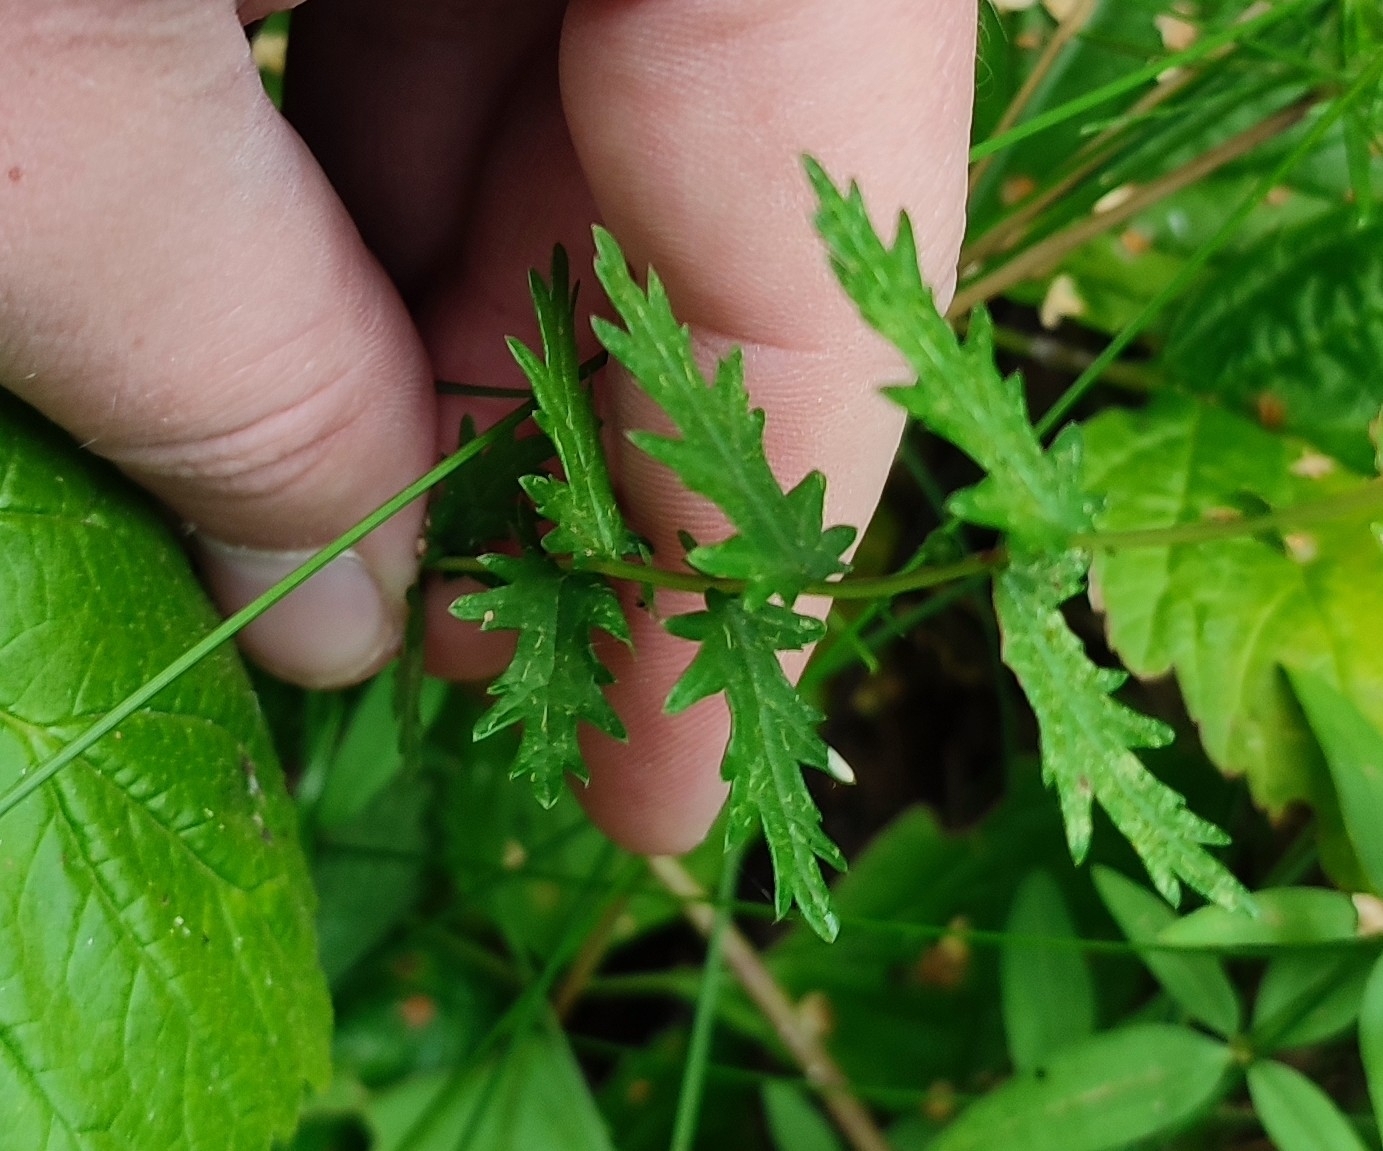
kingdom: Plantae
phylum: Tracheophyta
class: Magnoliopsida
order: Rosales
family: Rosaceae
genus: Filipendula
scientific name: Filipendula vulgaris
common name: Dropwort
